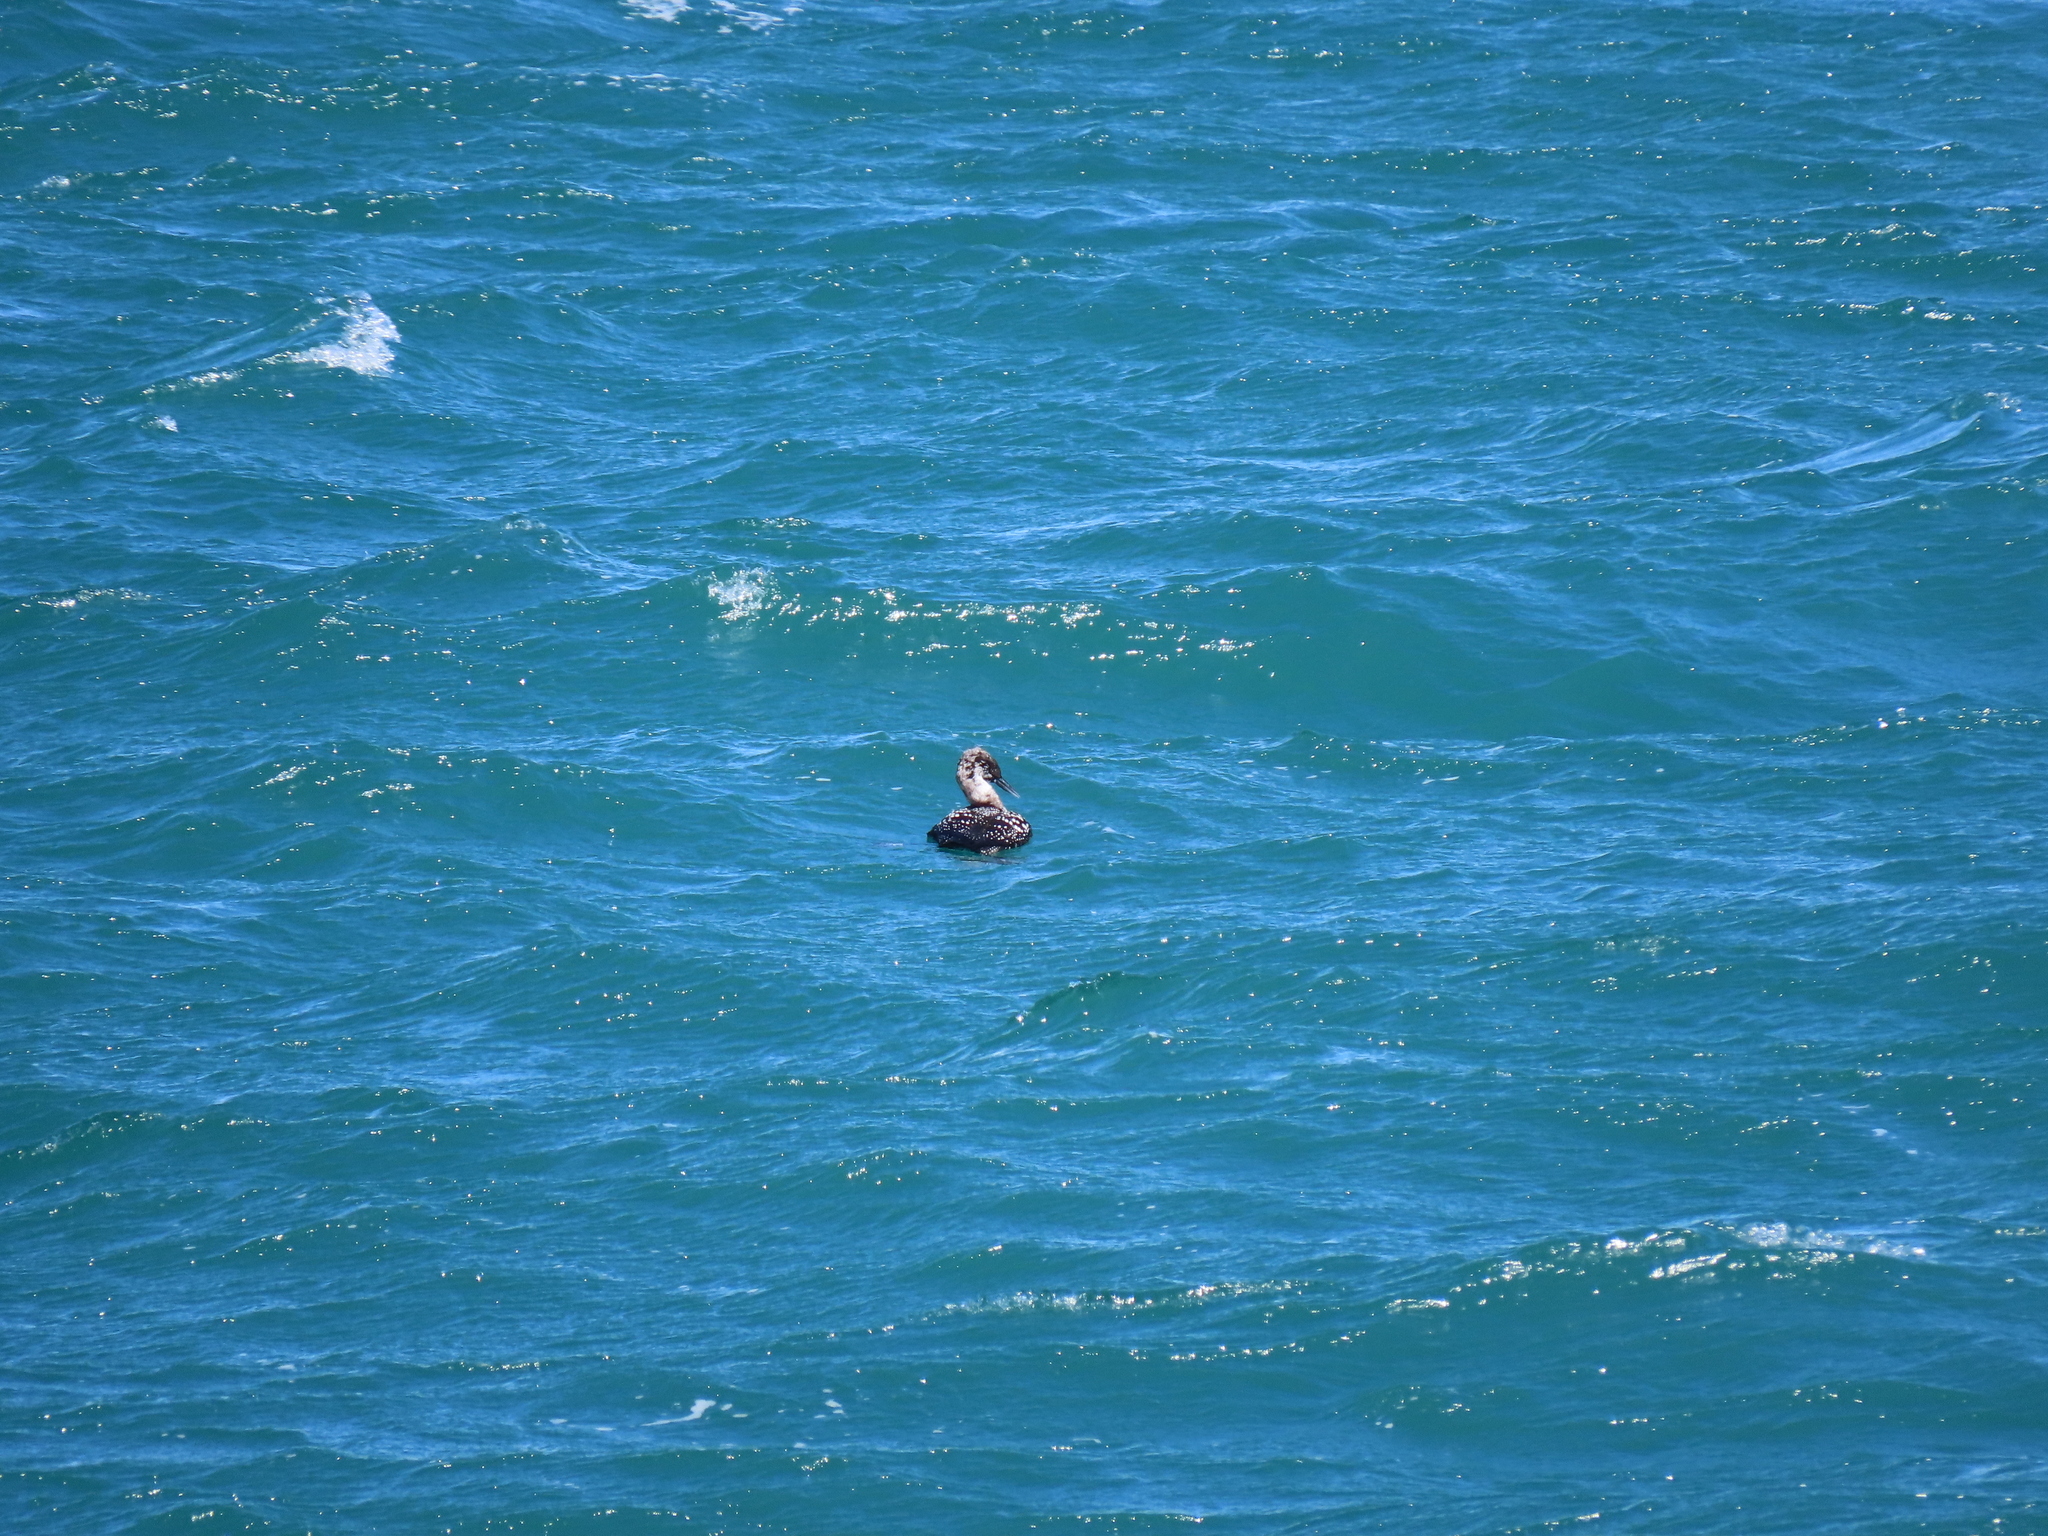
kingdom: Animalia
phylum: Chordata
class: Aves
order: Gaviiformes
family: Gaviidae
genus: Gavia
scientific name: Gavia immer
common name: Common loon
